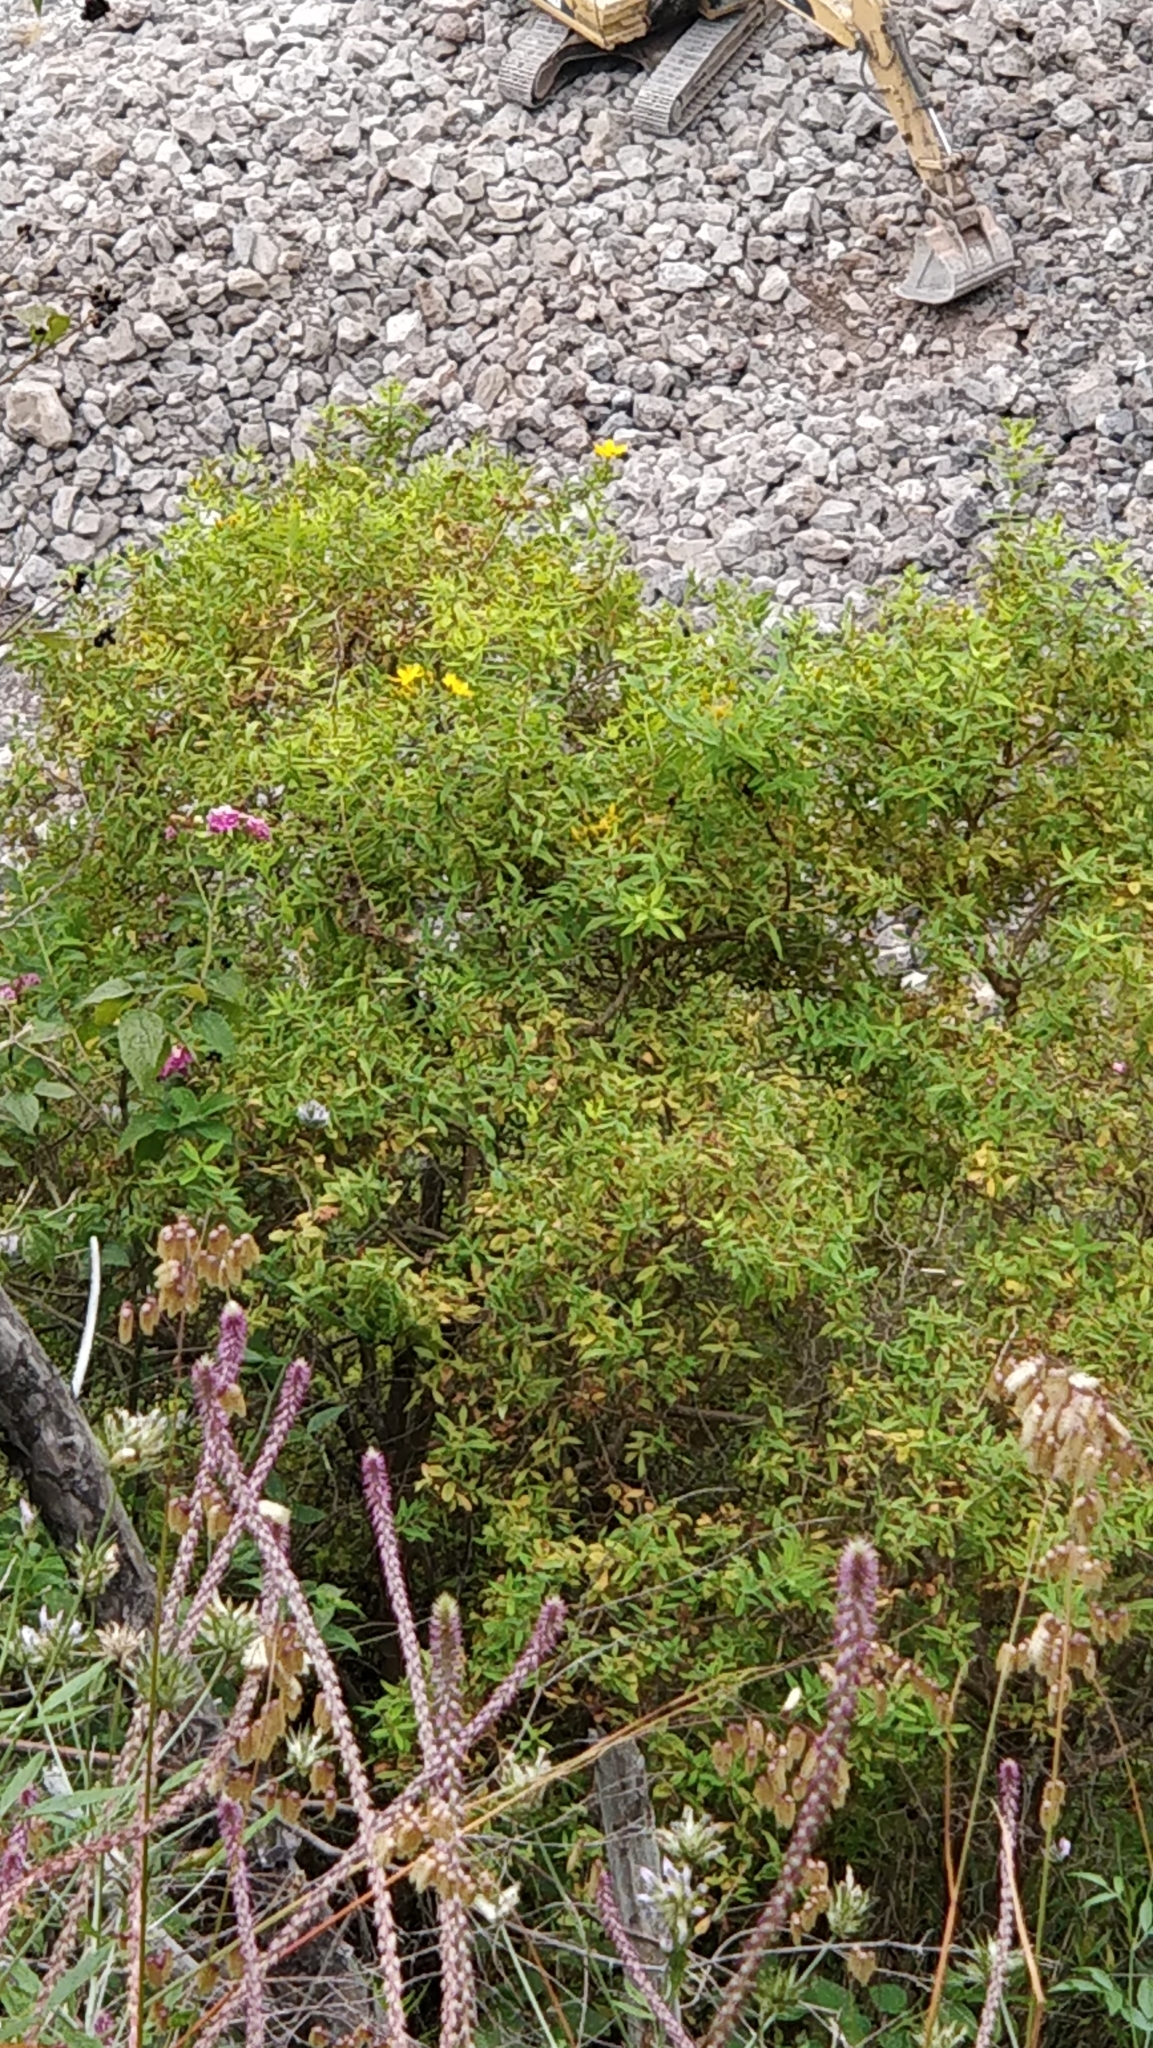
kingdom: Plantae
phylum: Tracheophyta
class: Magnoliopsida
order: Malpighiales
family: Hypericaceae
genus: Hypericum
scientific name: Hypericum canariense
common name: Canary island st. johnswort
